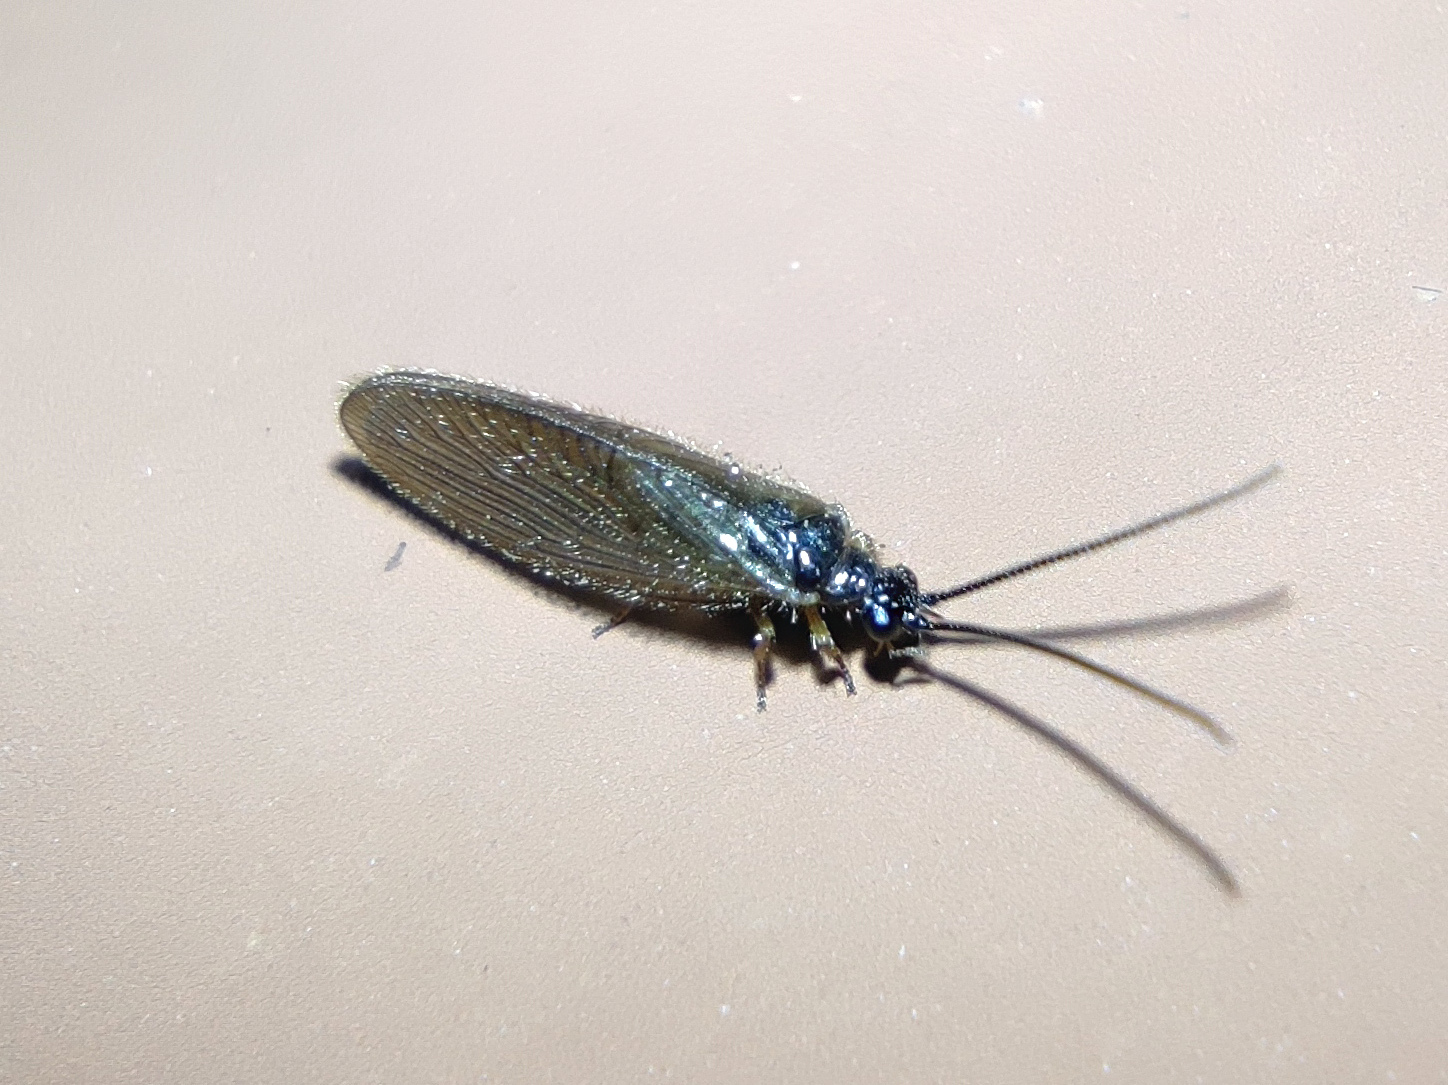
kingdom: Animalia
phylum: Arthropoda
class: Insecta
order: Neuroptera
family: Sisyridae
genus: Sisyra
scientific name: Sisyra nigra
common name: Black spongillafly
